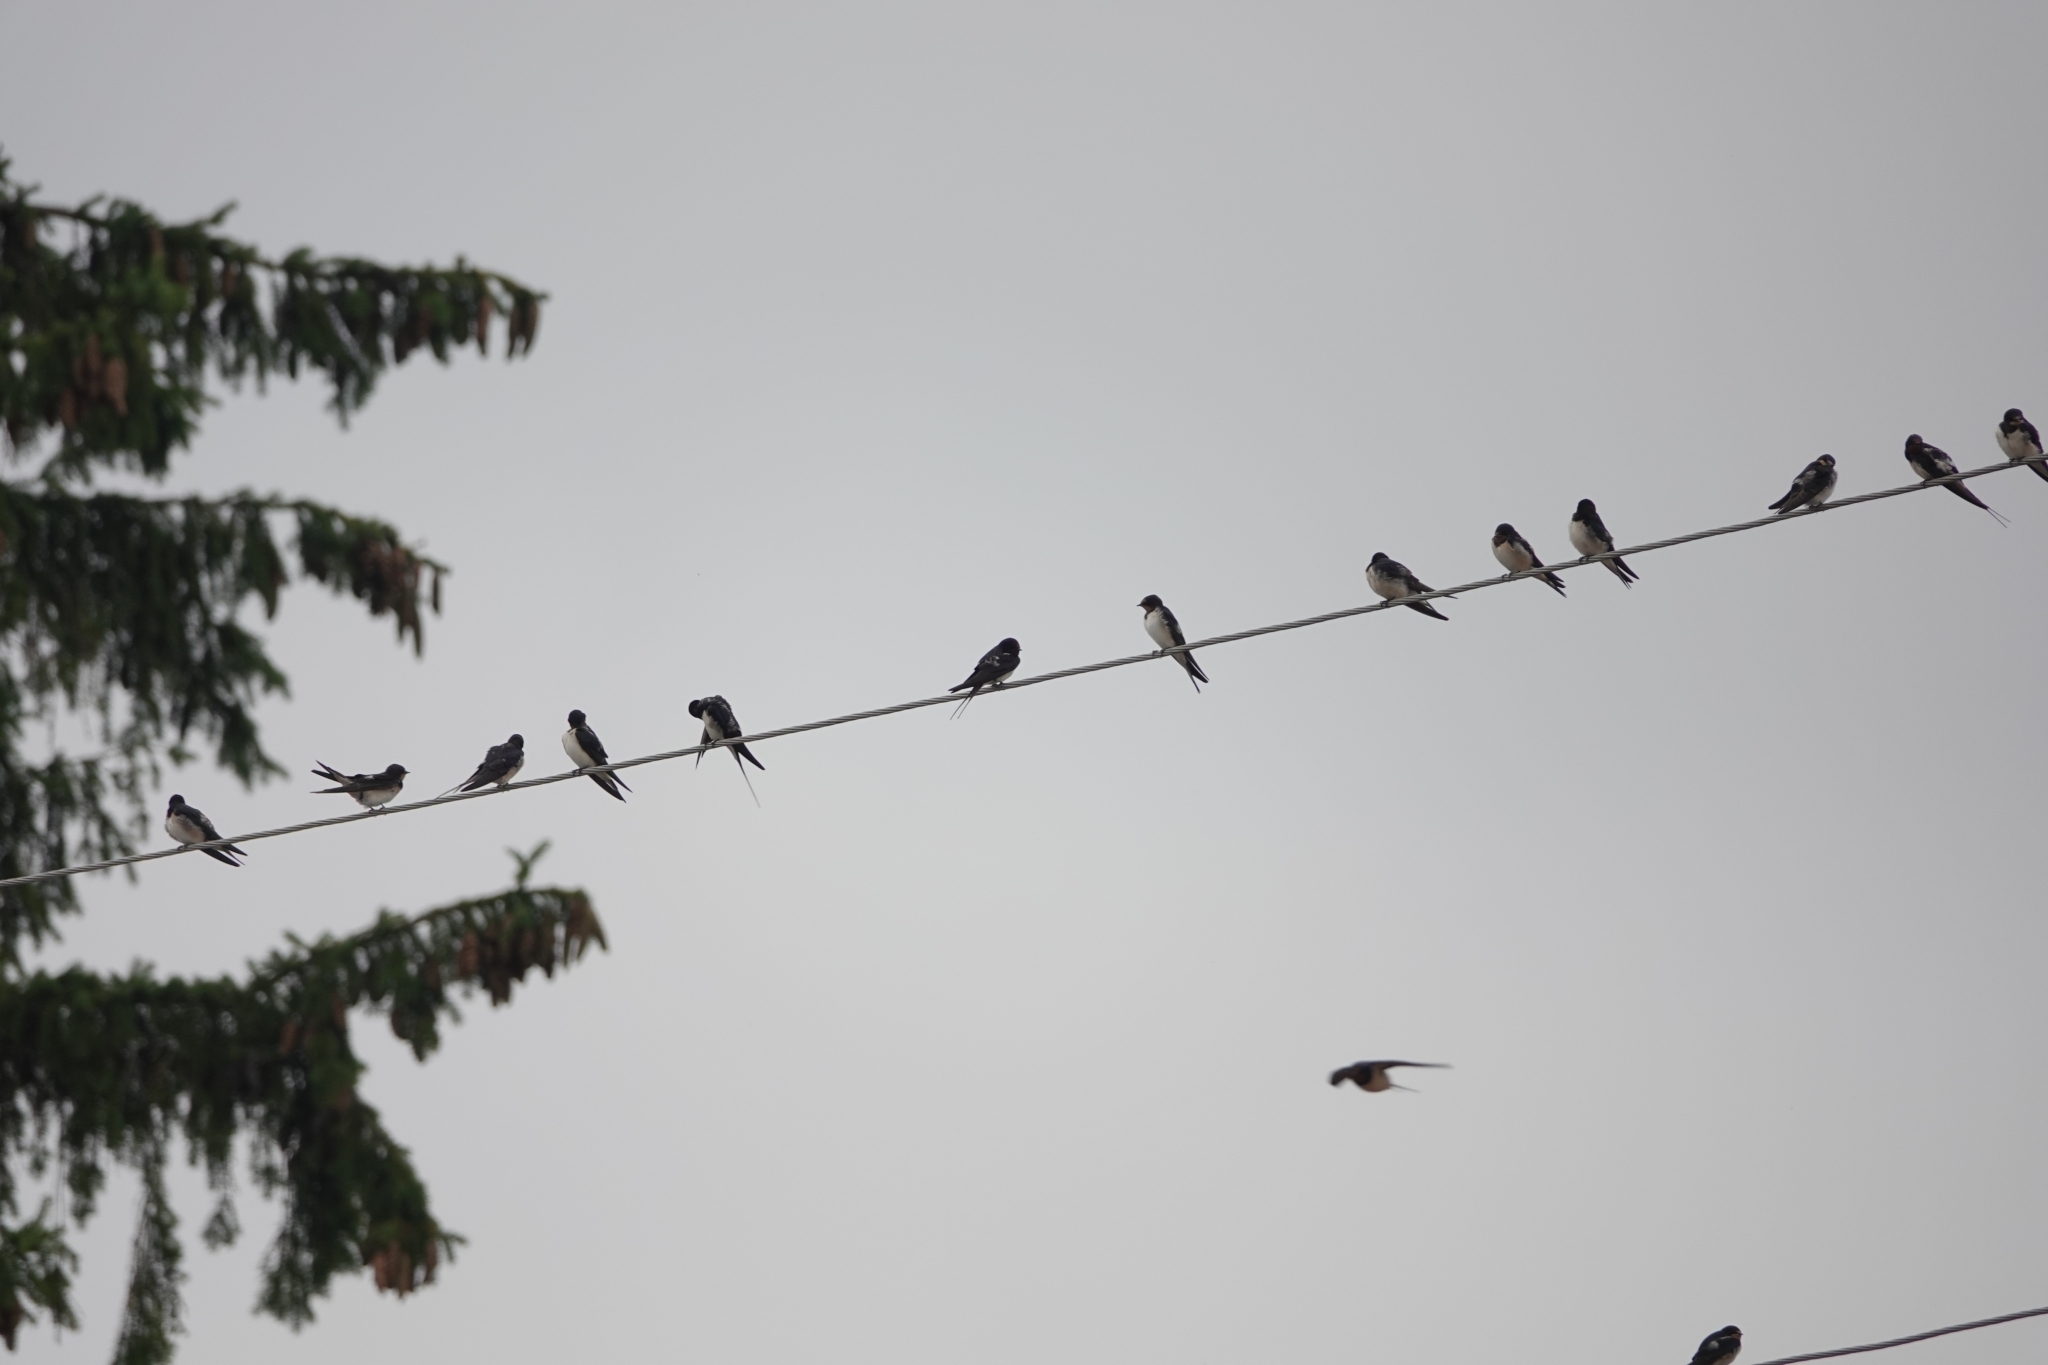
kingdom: Animalia
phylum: Chordata
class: Aves
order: Passeriformes
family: Hirundinidae
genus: Hirundo
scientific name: Hirundo rustica
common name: Barn swallow
